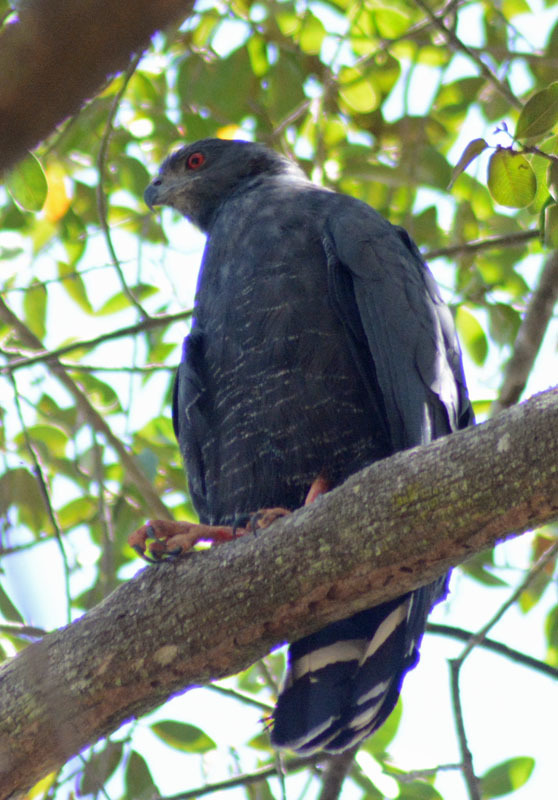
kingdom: Animalia
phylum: Chordata
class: Aves
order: Accipitriformes
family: Accipitridae
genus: Geranospiza
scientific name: Geranospiza caerulescens
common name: Crane hawk
